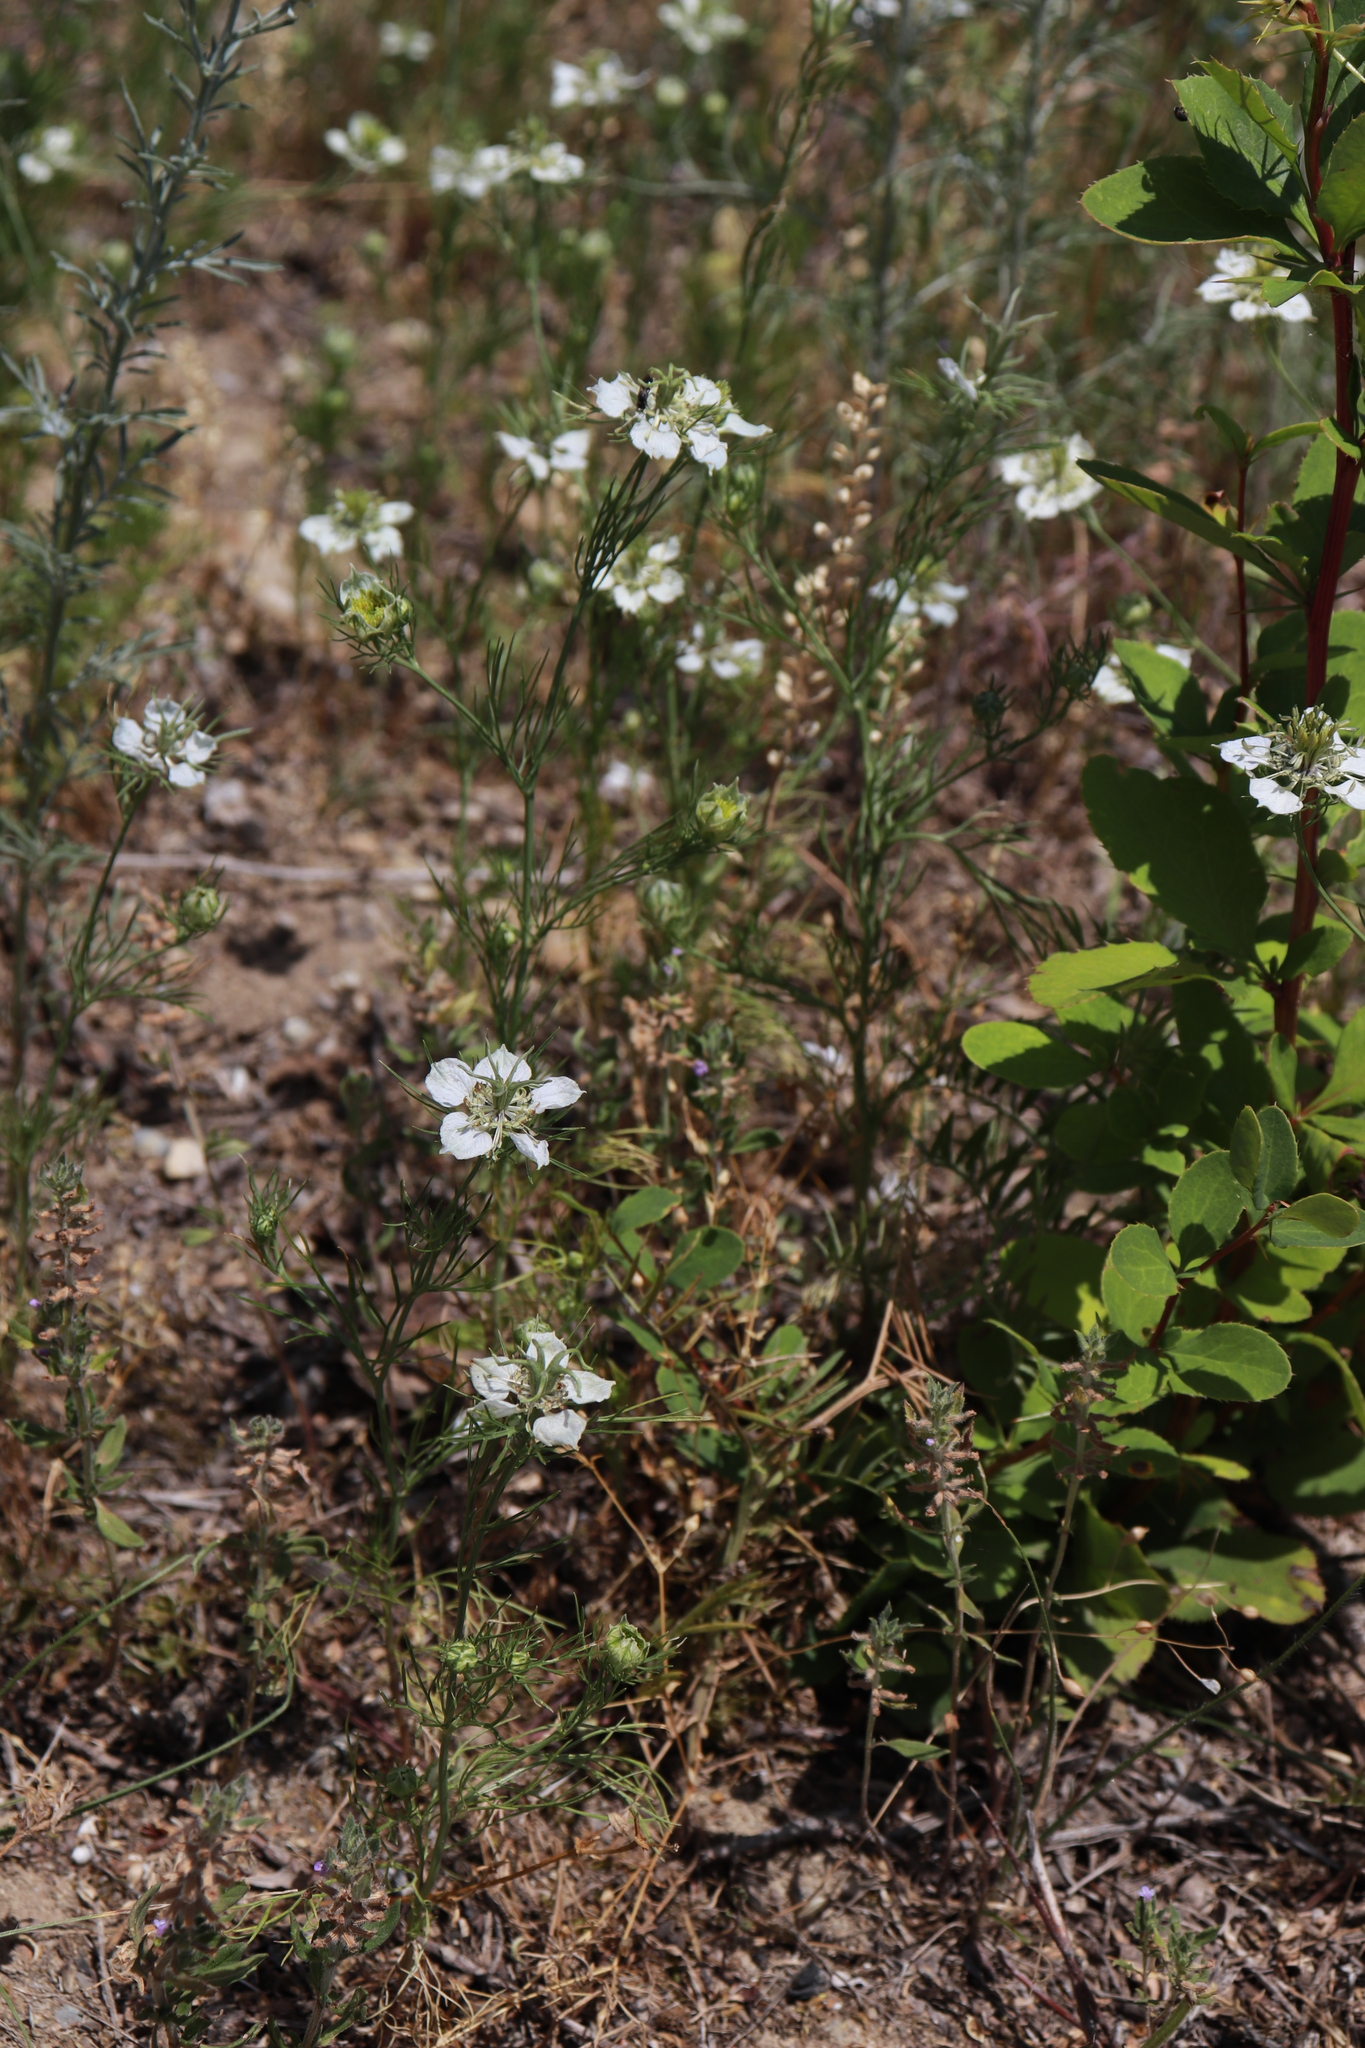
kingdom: Plantae
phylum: Tracheophyta
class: Magnoliopsida
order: Ranunculales
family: Ranunculaceae
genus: Nigella
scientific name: Nigella arvensis
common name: Wild fennel-flower
